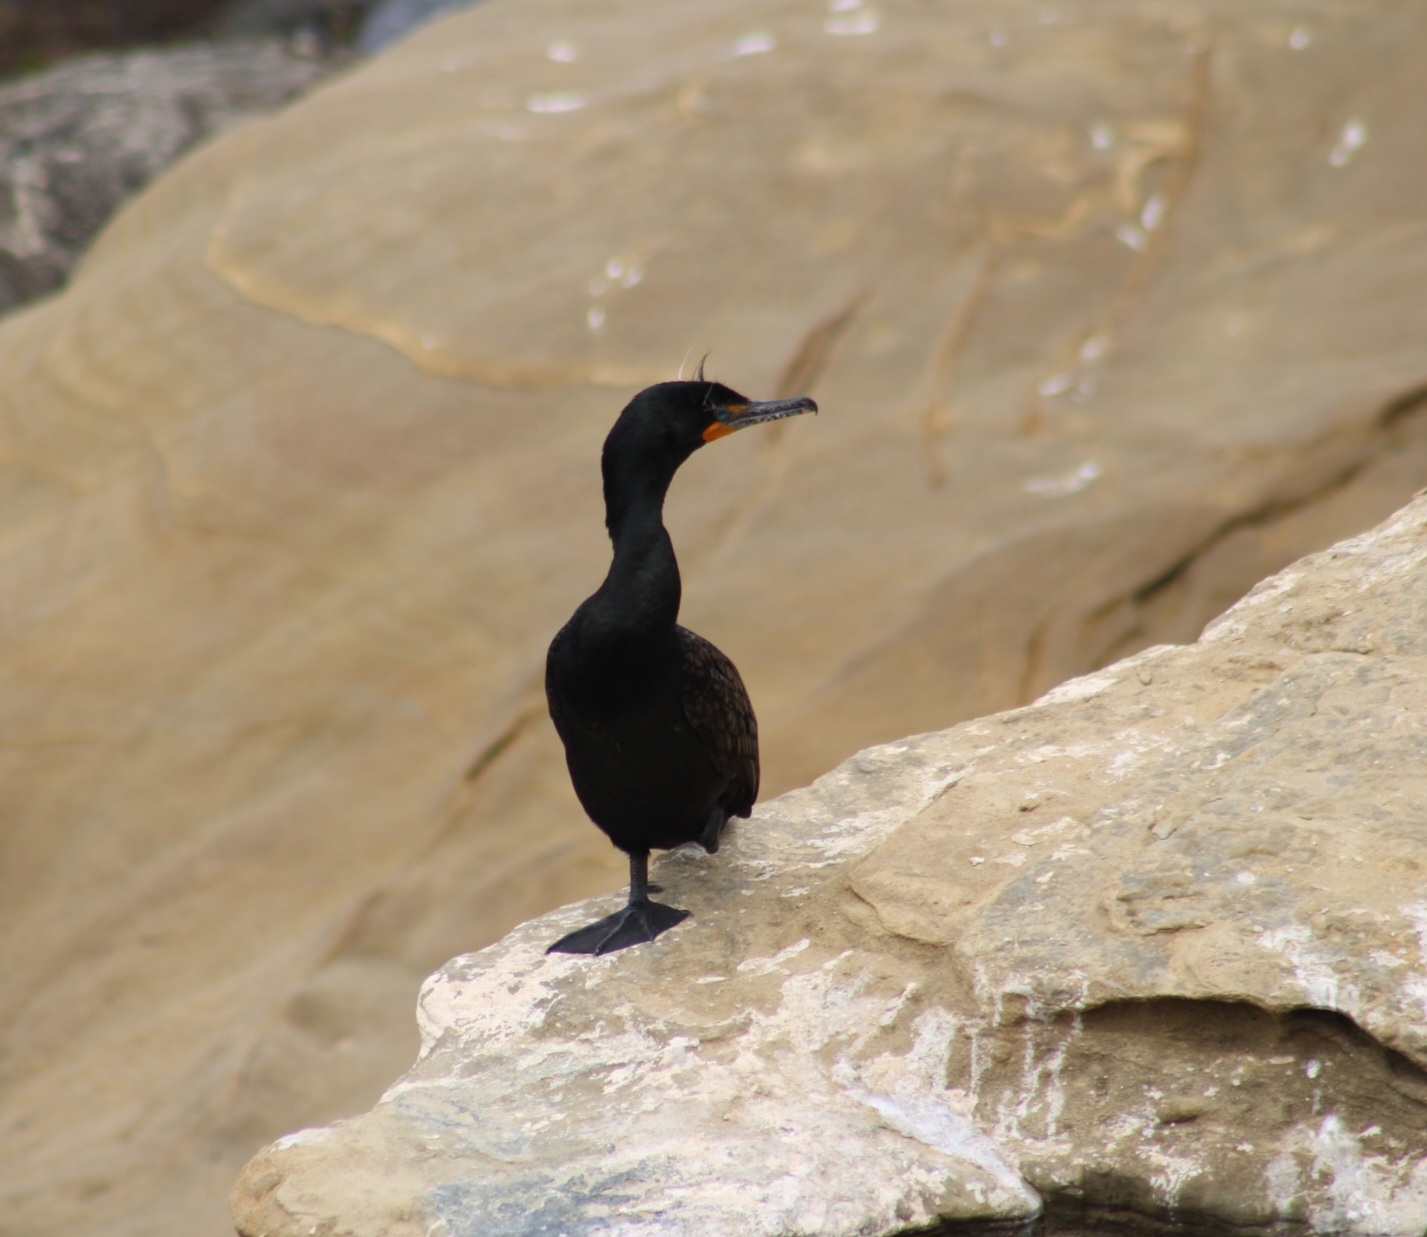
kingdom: Animalia
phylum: Chordata
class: Aves
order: Suliformes
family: Phalacrocoracidae
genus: Phalacrocorax
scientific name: Phalacrocorax auritus
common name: Double-crested cormorant
